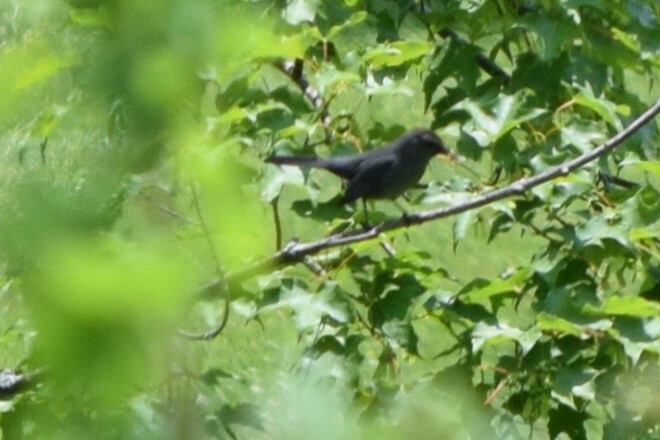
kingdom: Animalia
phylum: Chordata
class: Aves
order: Passeriformes
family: Mimidae
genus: Dumetella
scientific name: Dumetella carolinensis
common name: Gray catbird
